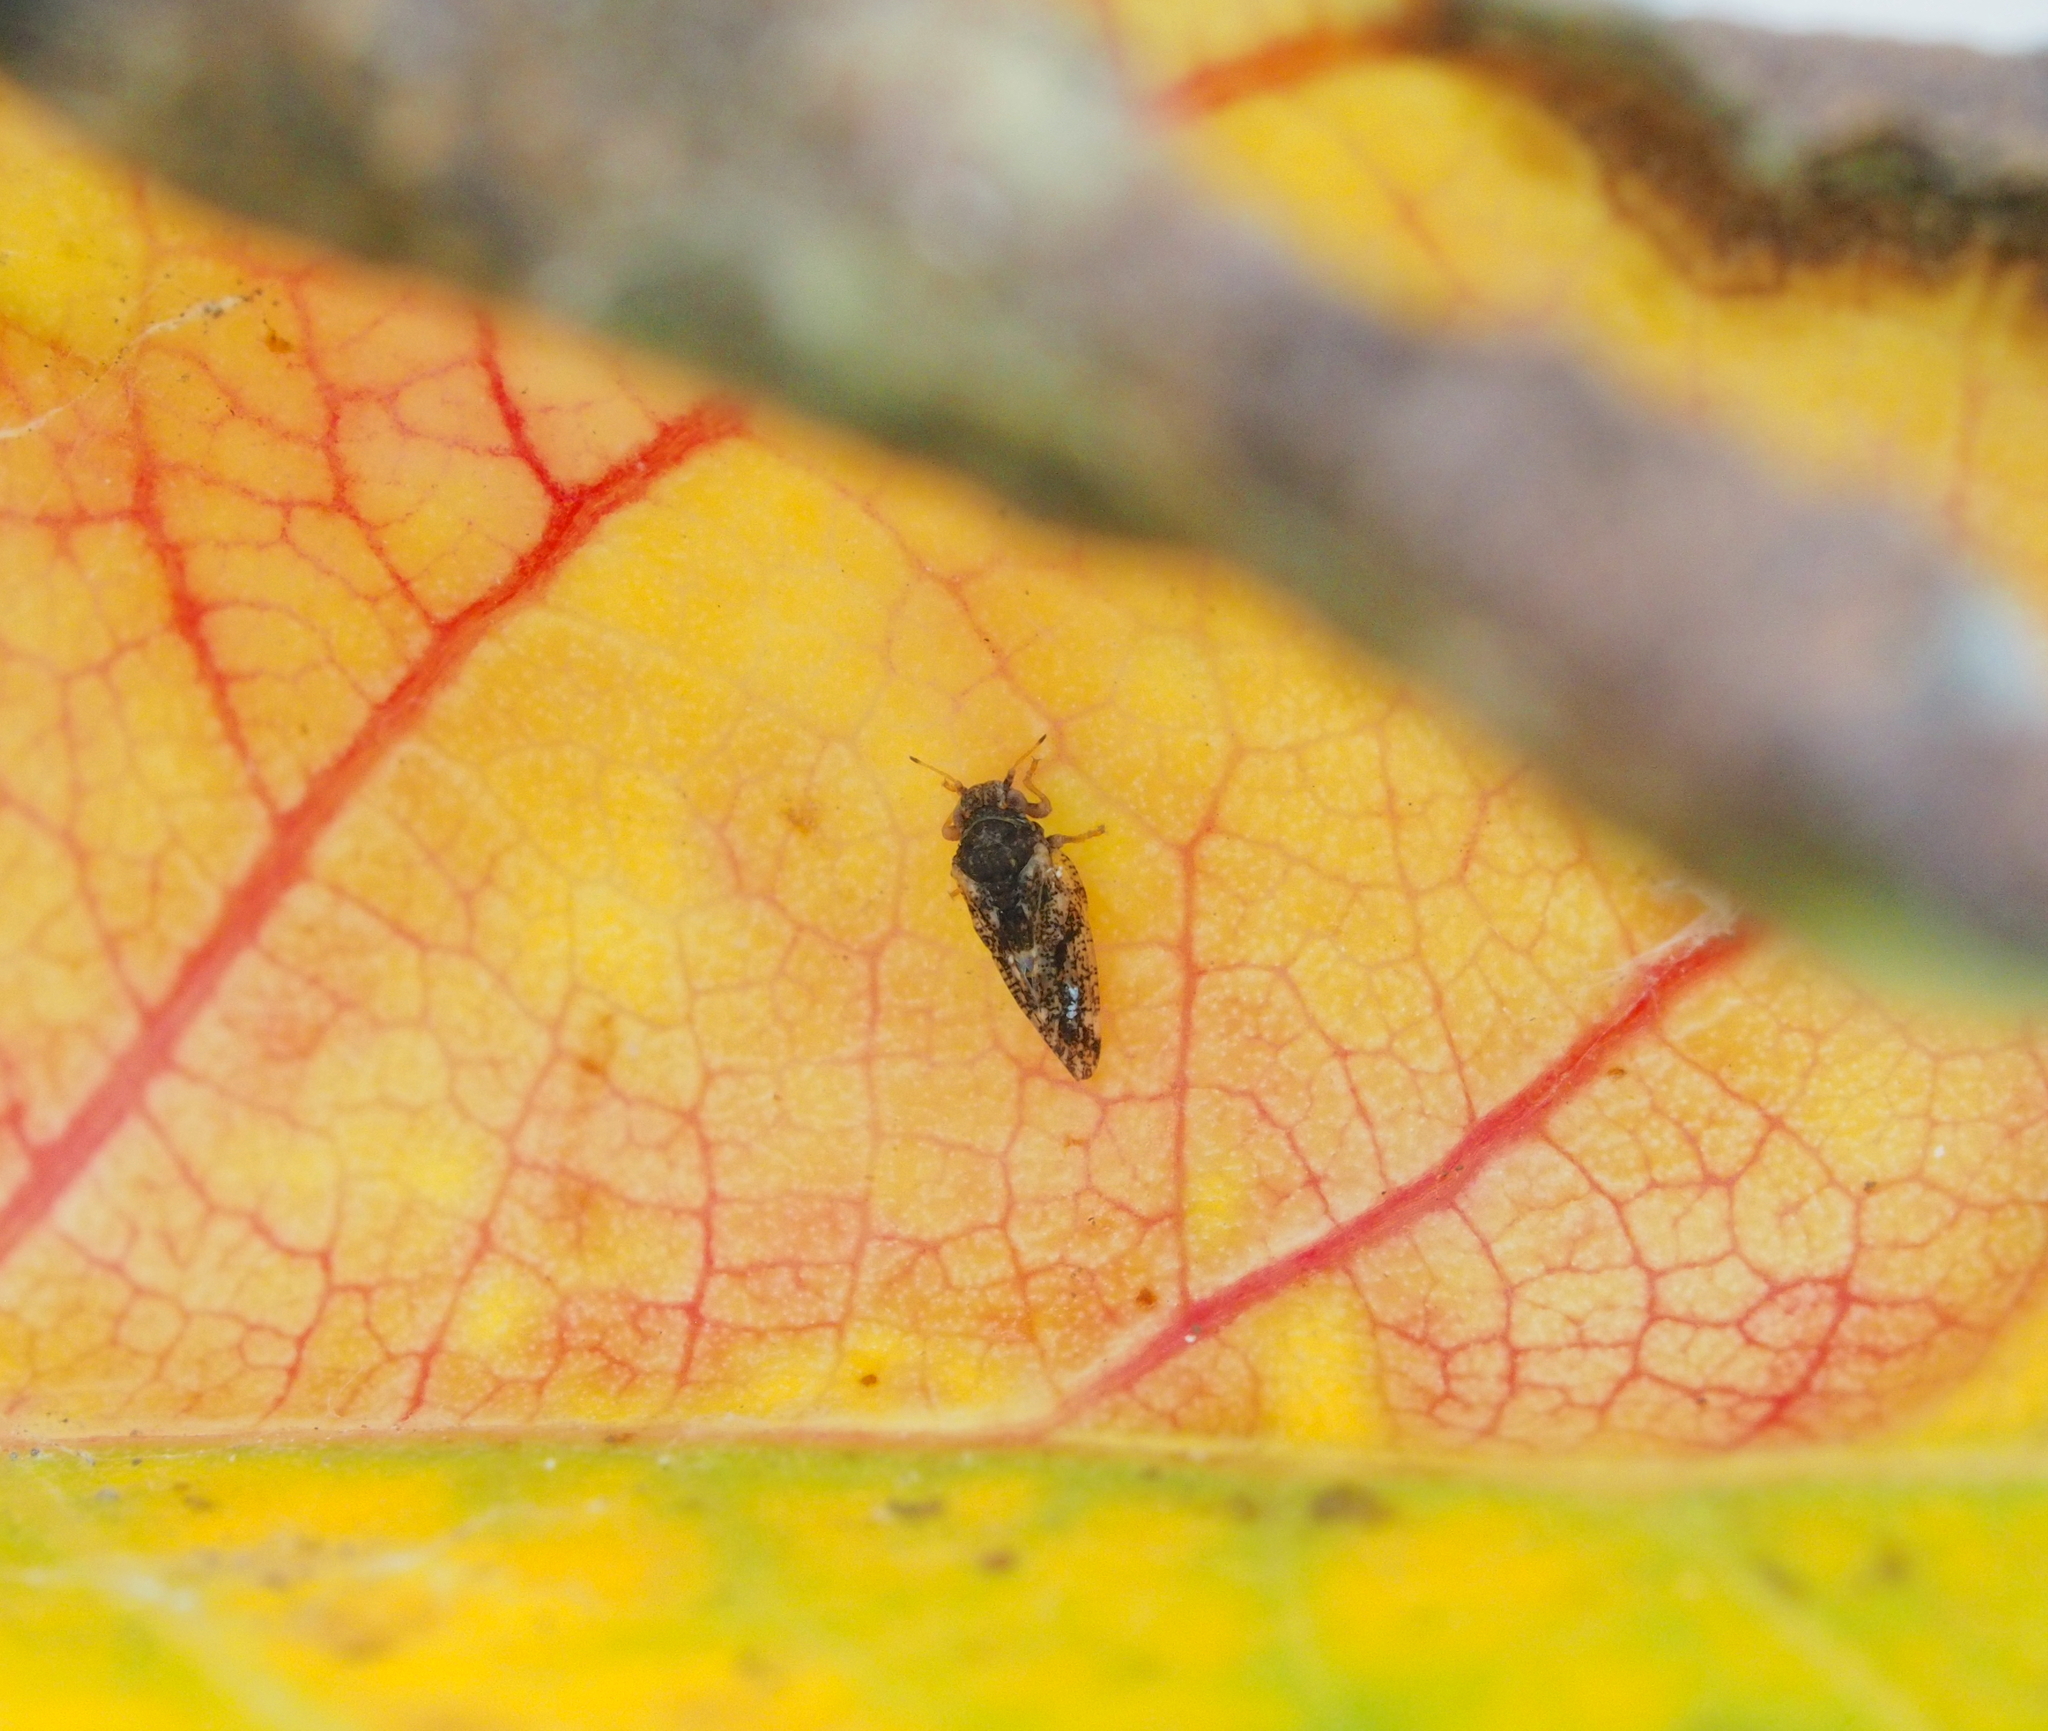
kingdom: Animalia
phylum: Arthropoda
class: Insecta
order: Hemiptera
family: Liviidae
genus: Camarotoscena
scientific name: Camarotoscena speciosa
